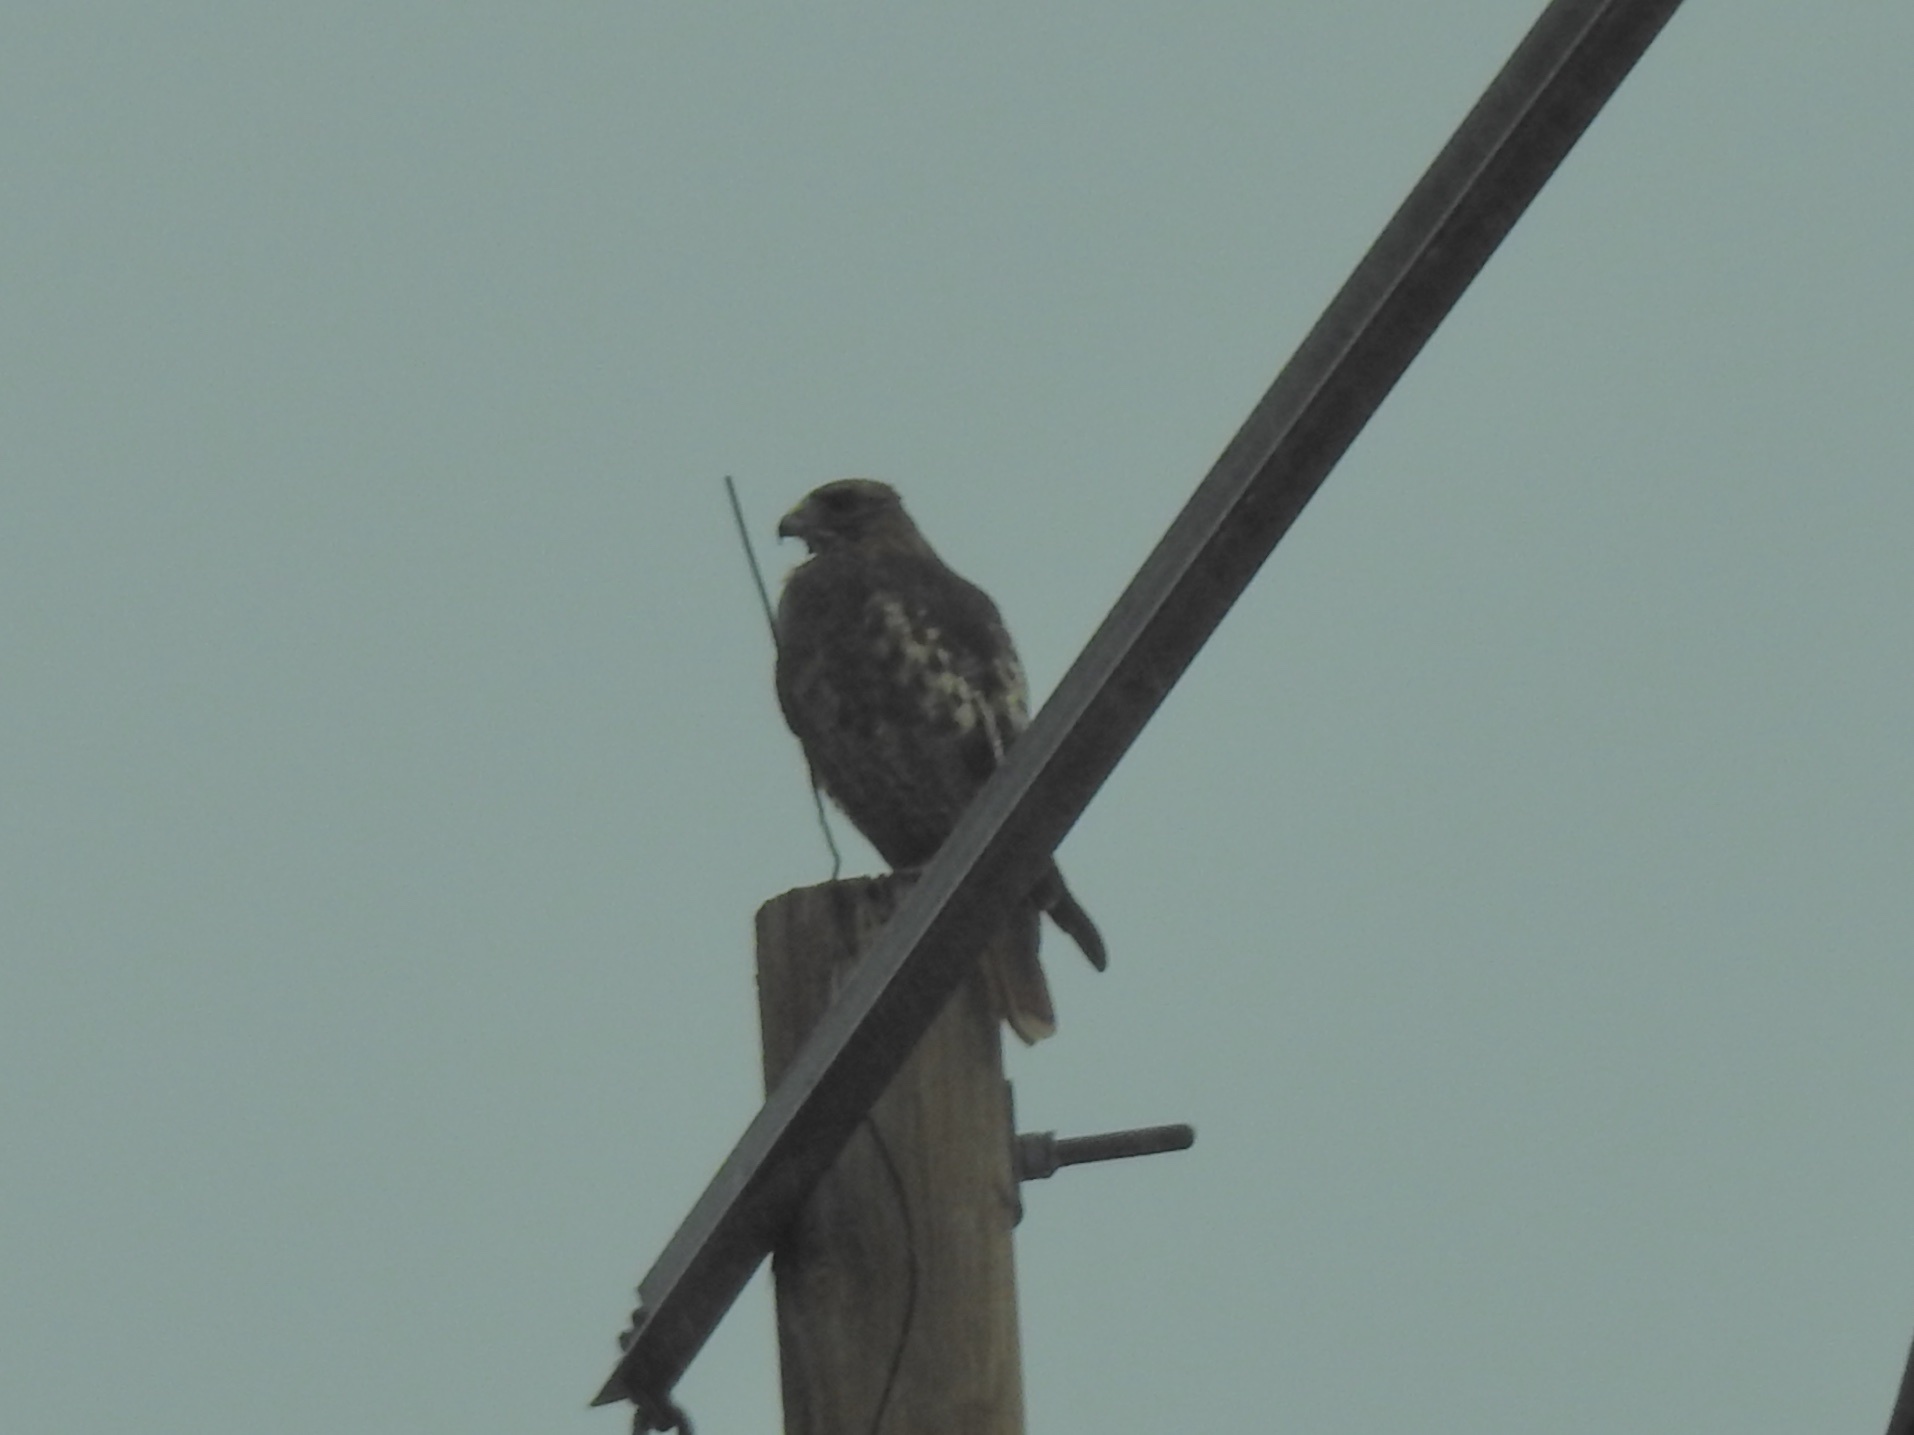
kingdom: Animalia
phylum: Chordata
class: Aves
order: Accipitriformes
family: Accipitridae
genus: Buteo
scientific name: Buteo jamaicensis
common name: Red-tailed hawk
